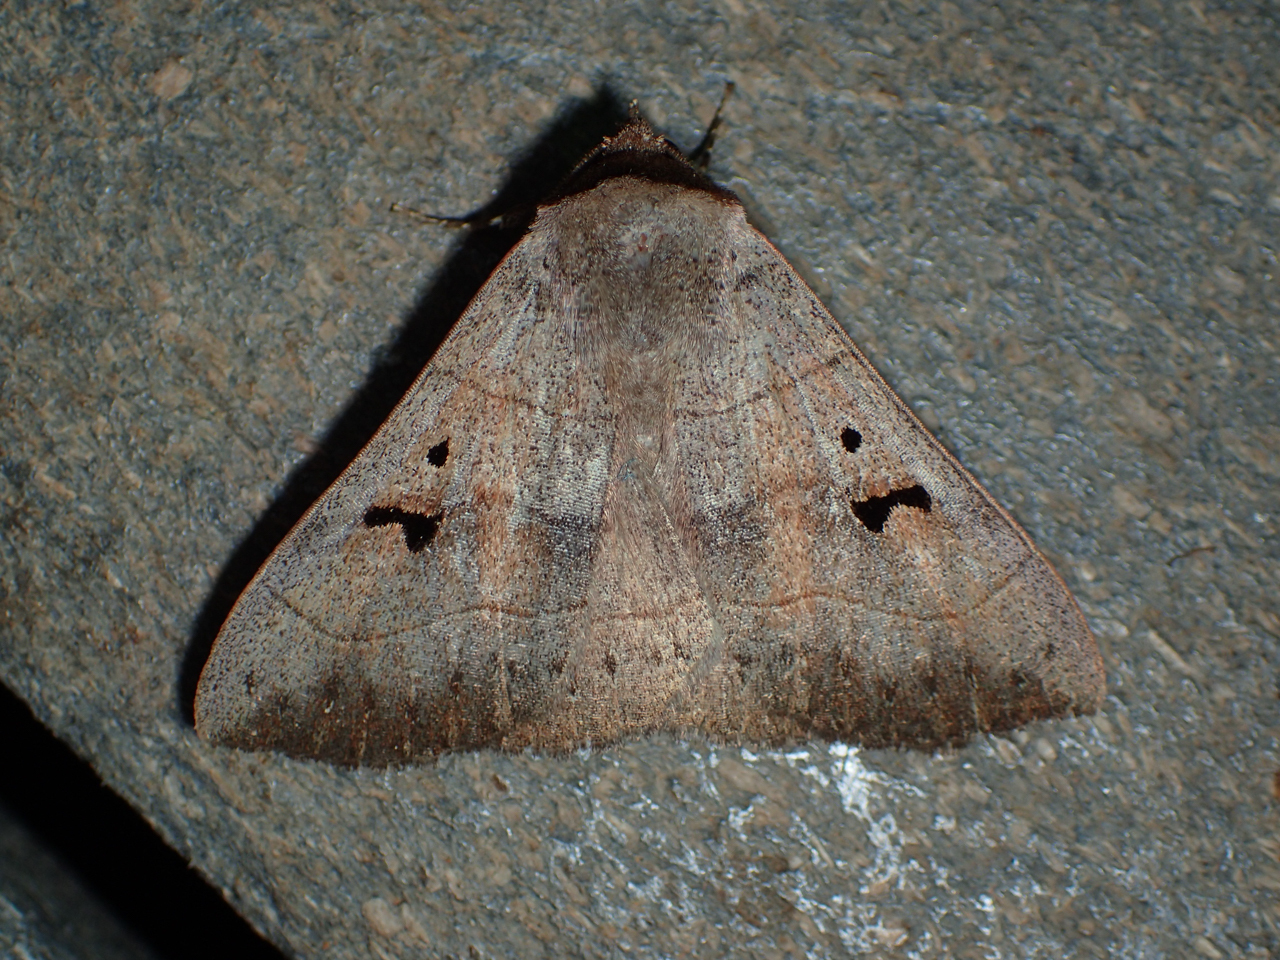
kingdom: Animalia
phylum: Arthropoda
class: Insecta
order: Lepidoptera
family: Erebidae
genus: Panopoda
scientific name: Panopoda carneicosta
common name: Brown panopoda moth
